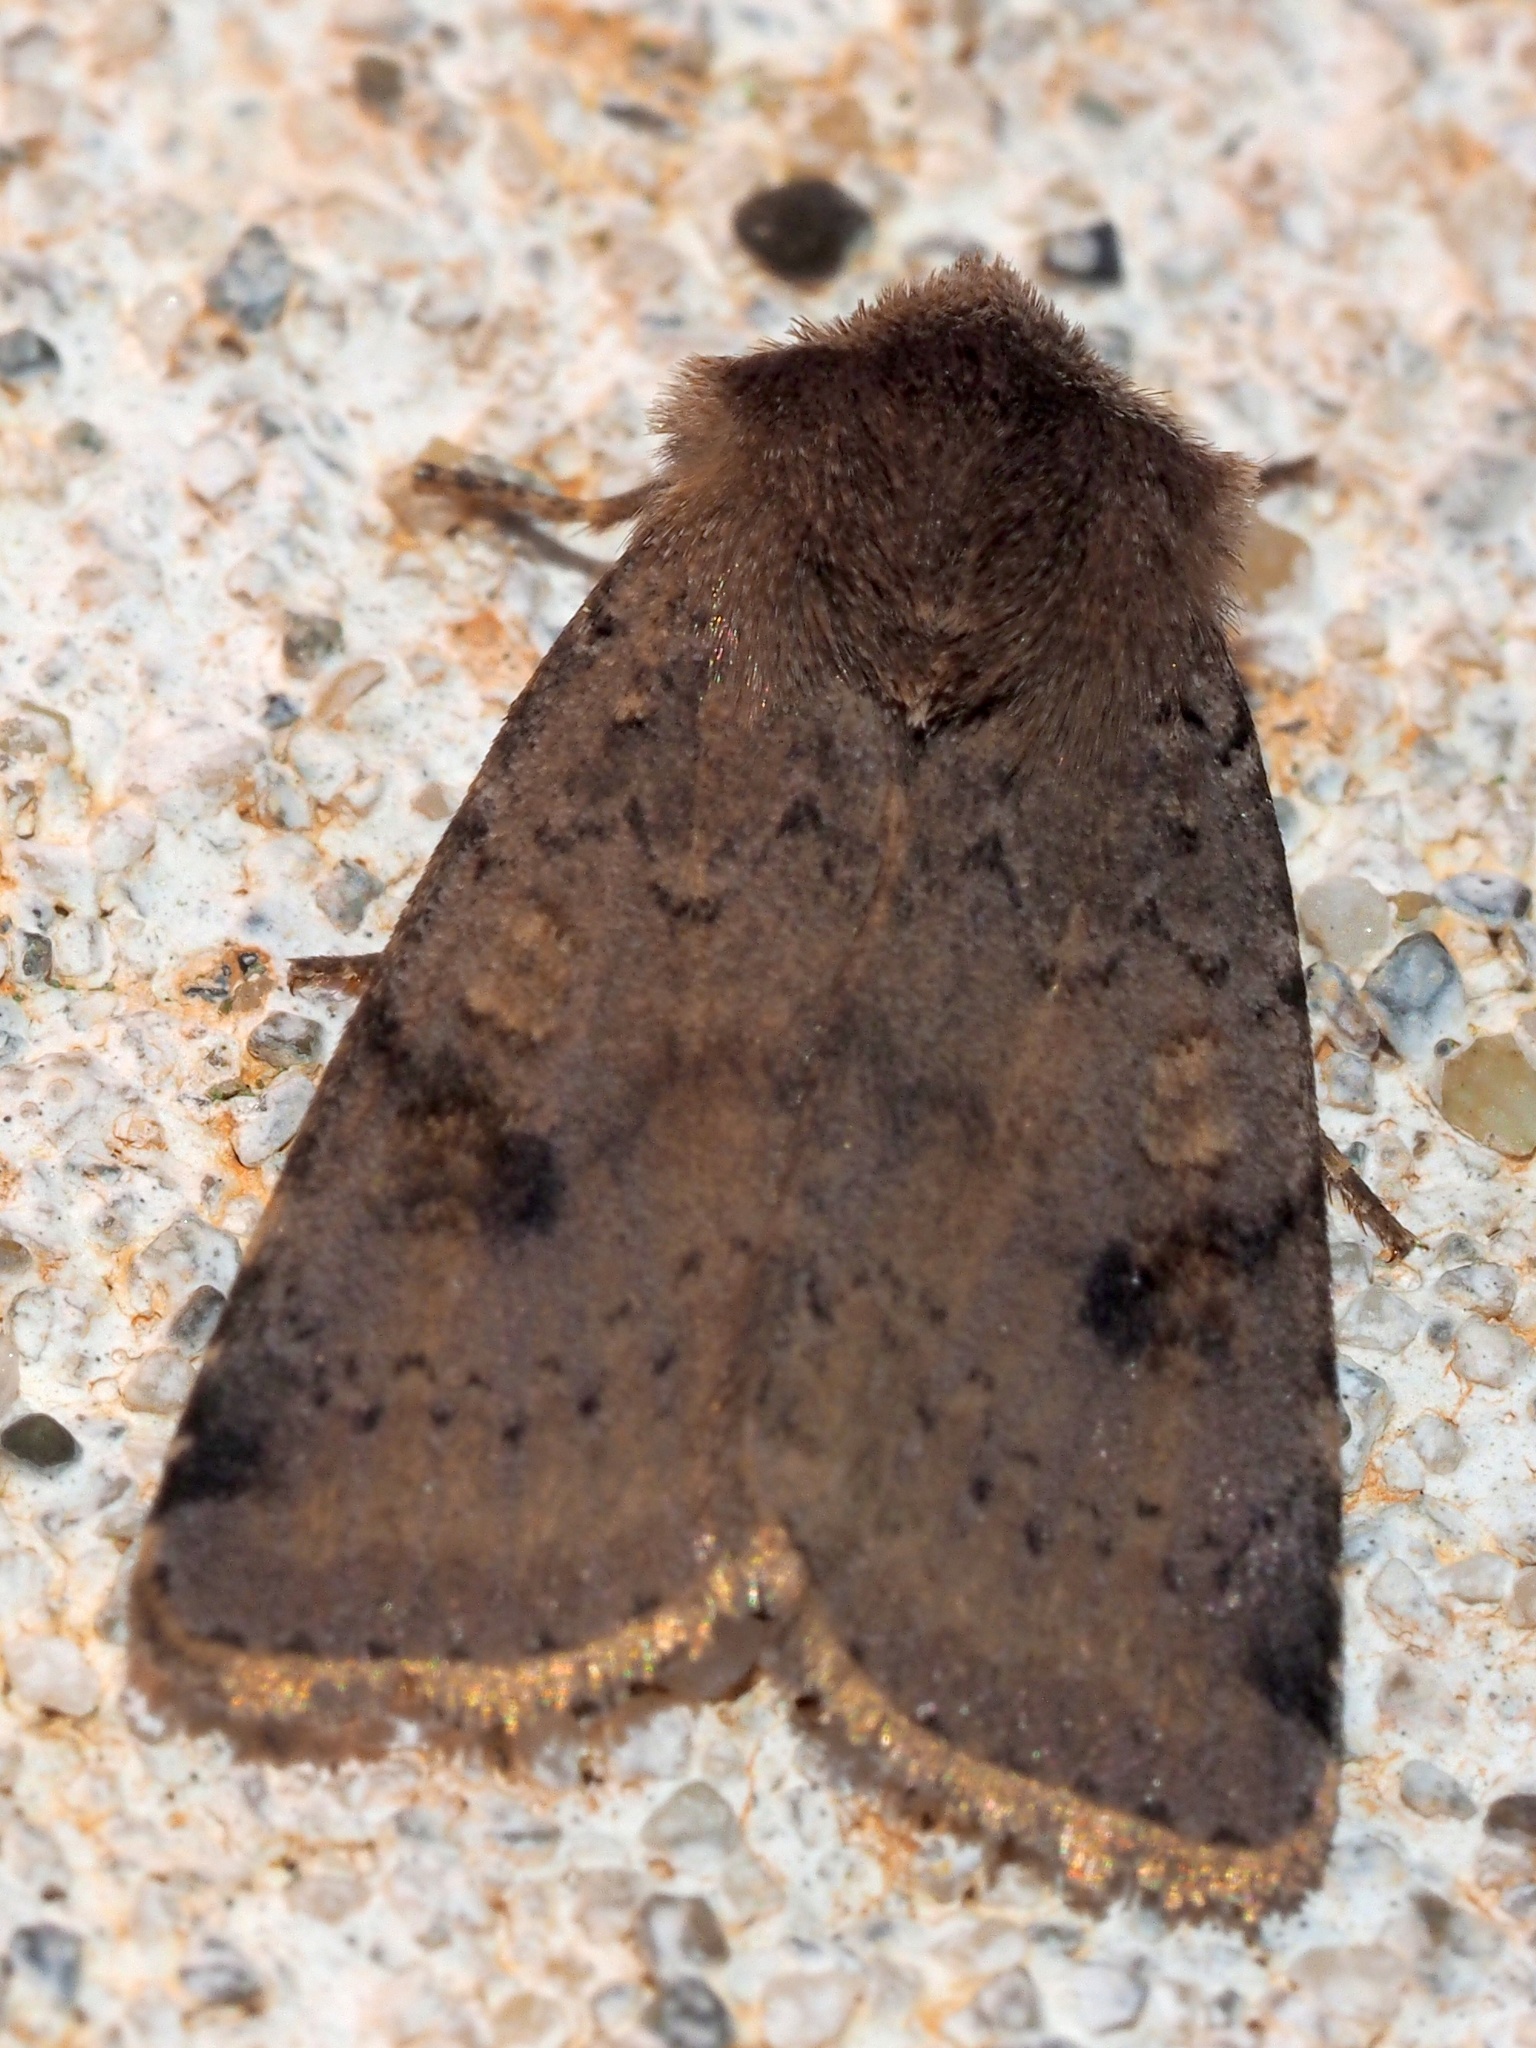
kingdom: Animalia
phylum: Arthropoda
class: Insecta
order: Lepidoptera
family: Noctuidae
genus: Cerastis
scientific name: Cerastis faceta
